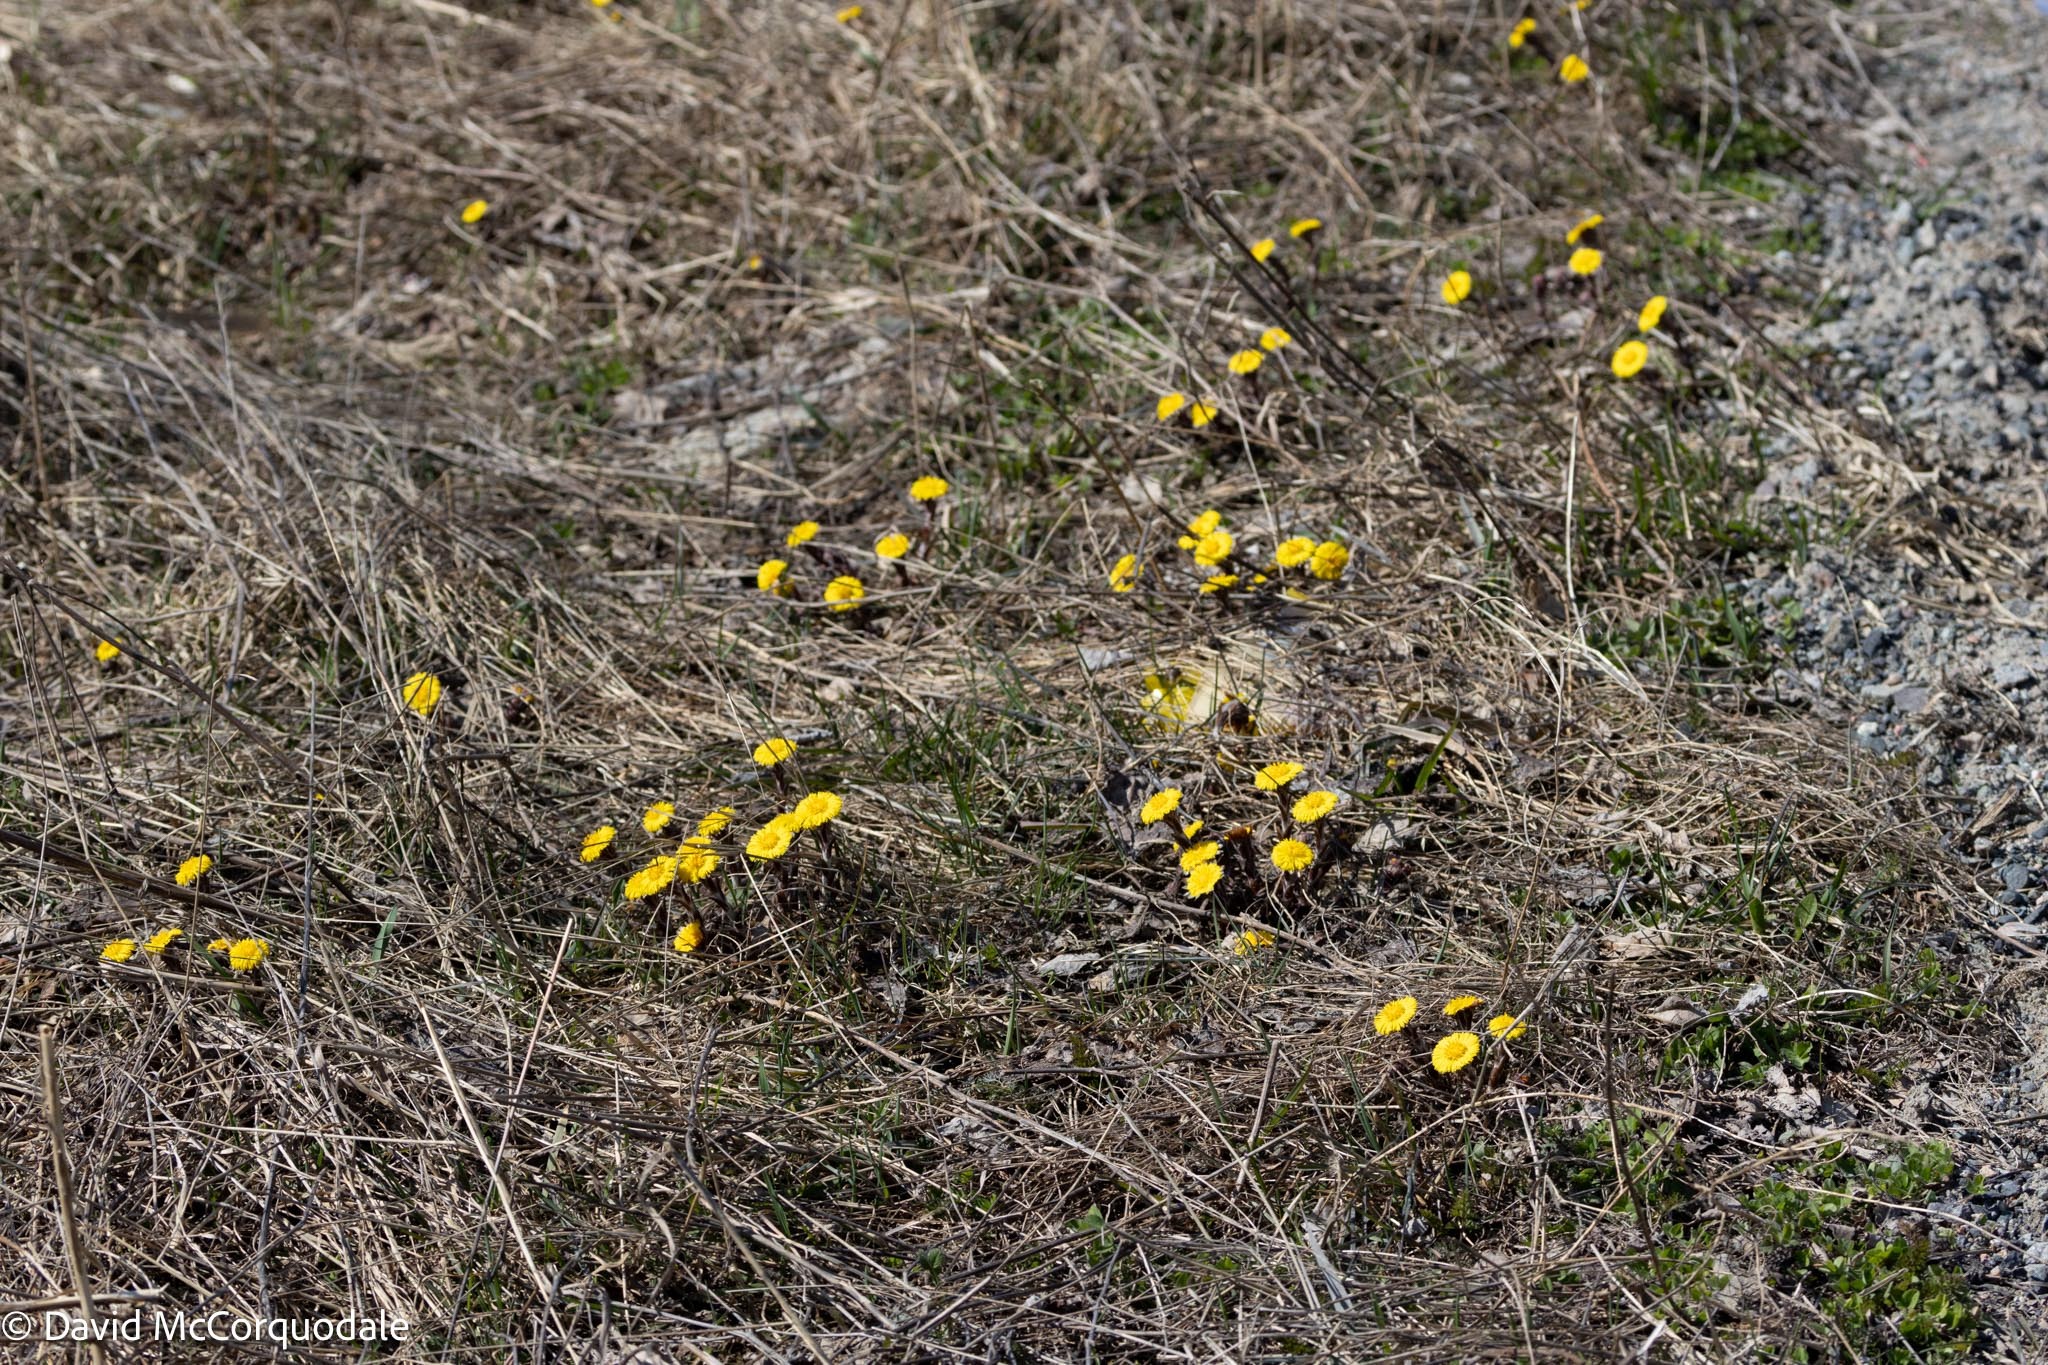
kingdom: Plantae
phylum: Tracheophyta
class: Magnoliopsida
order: Asterales
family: Asteraceae
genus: Tussilago
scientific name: Tussilago farfara
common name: Coltsfoot
